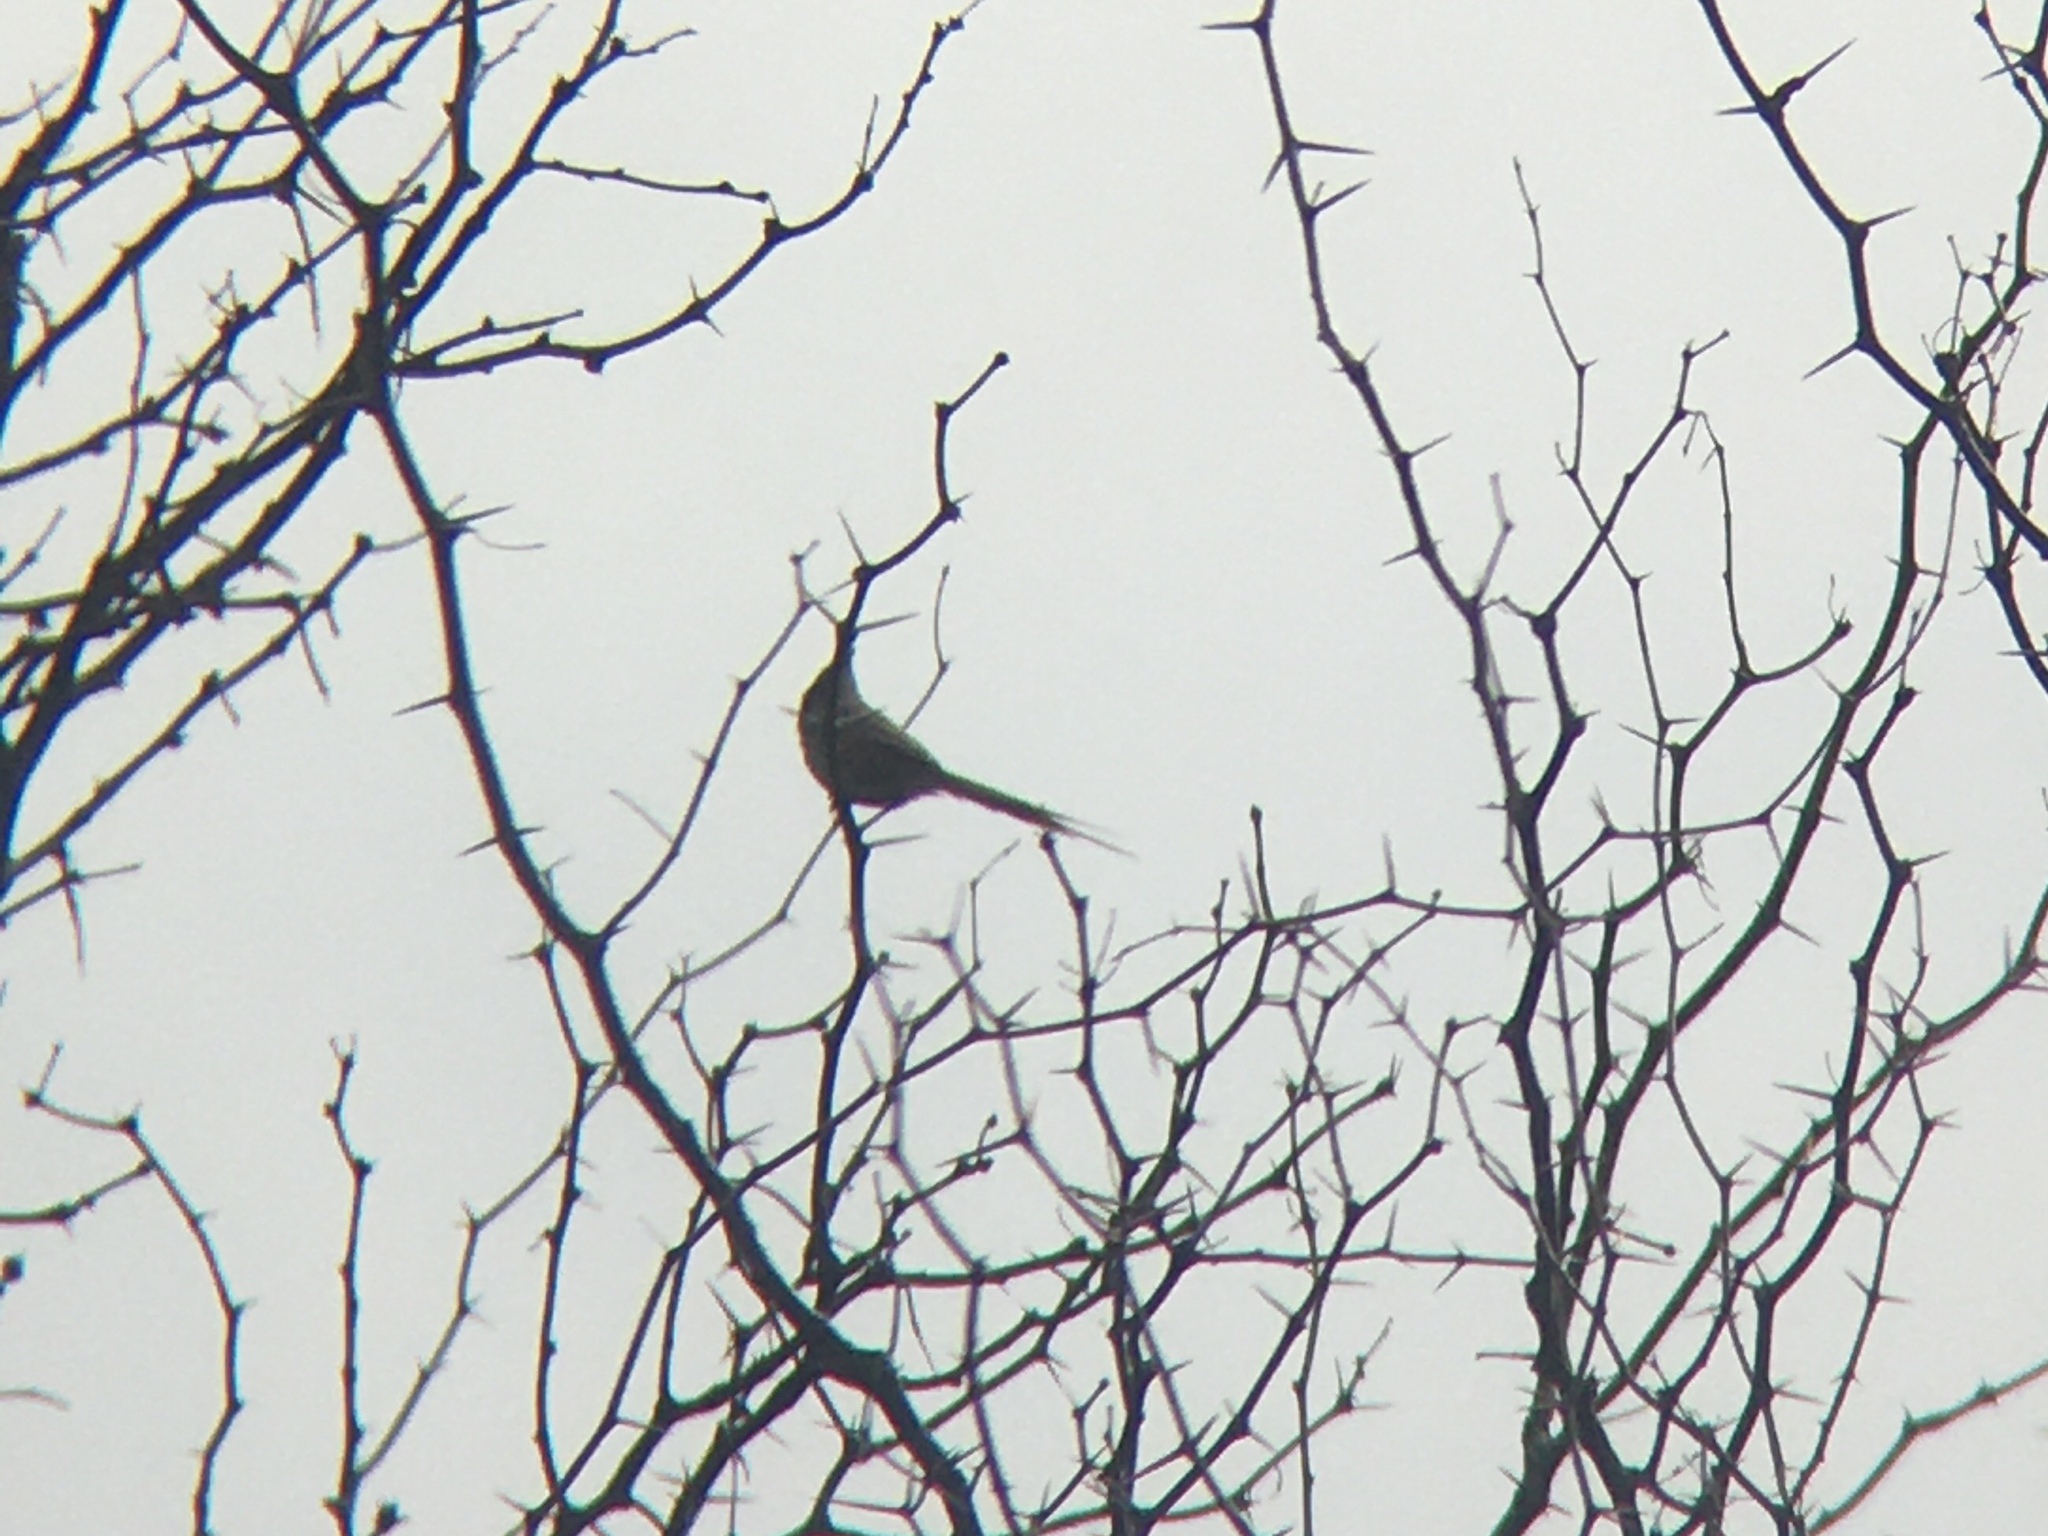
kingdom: Animalia
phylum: Chordata
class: Aves
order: Passeriformes
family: Furnariidae
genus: Leptasthenura
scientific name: Leptasthenura platensis
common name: Tufted tit-spinetail
